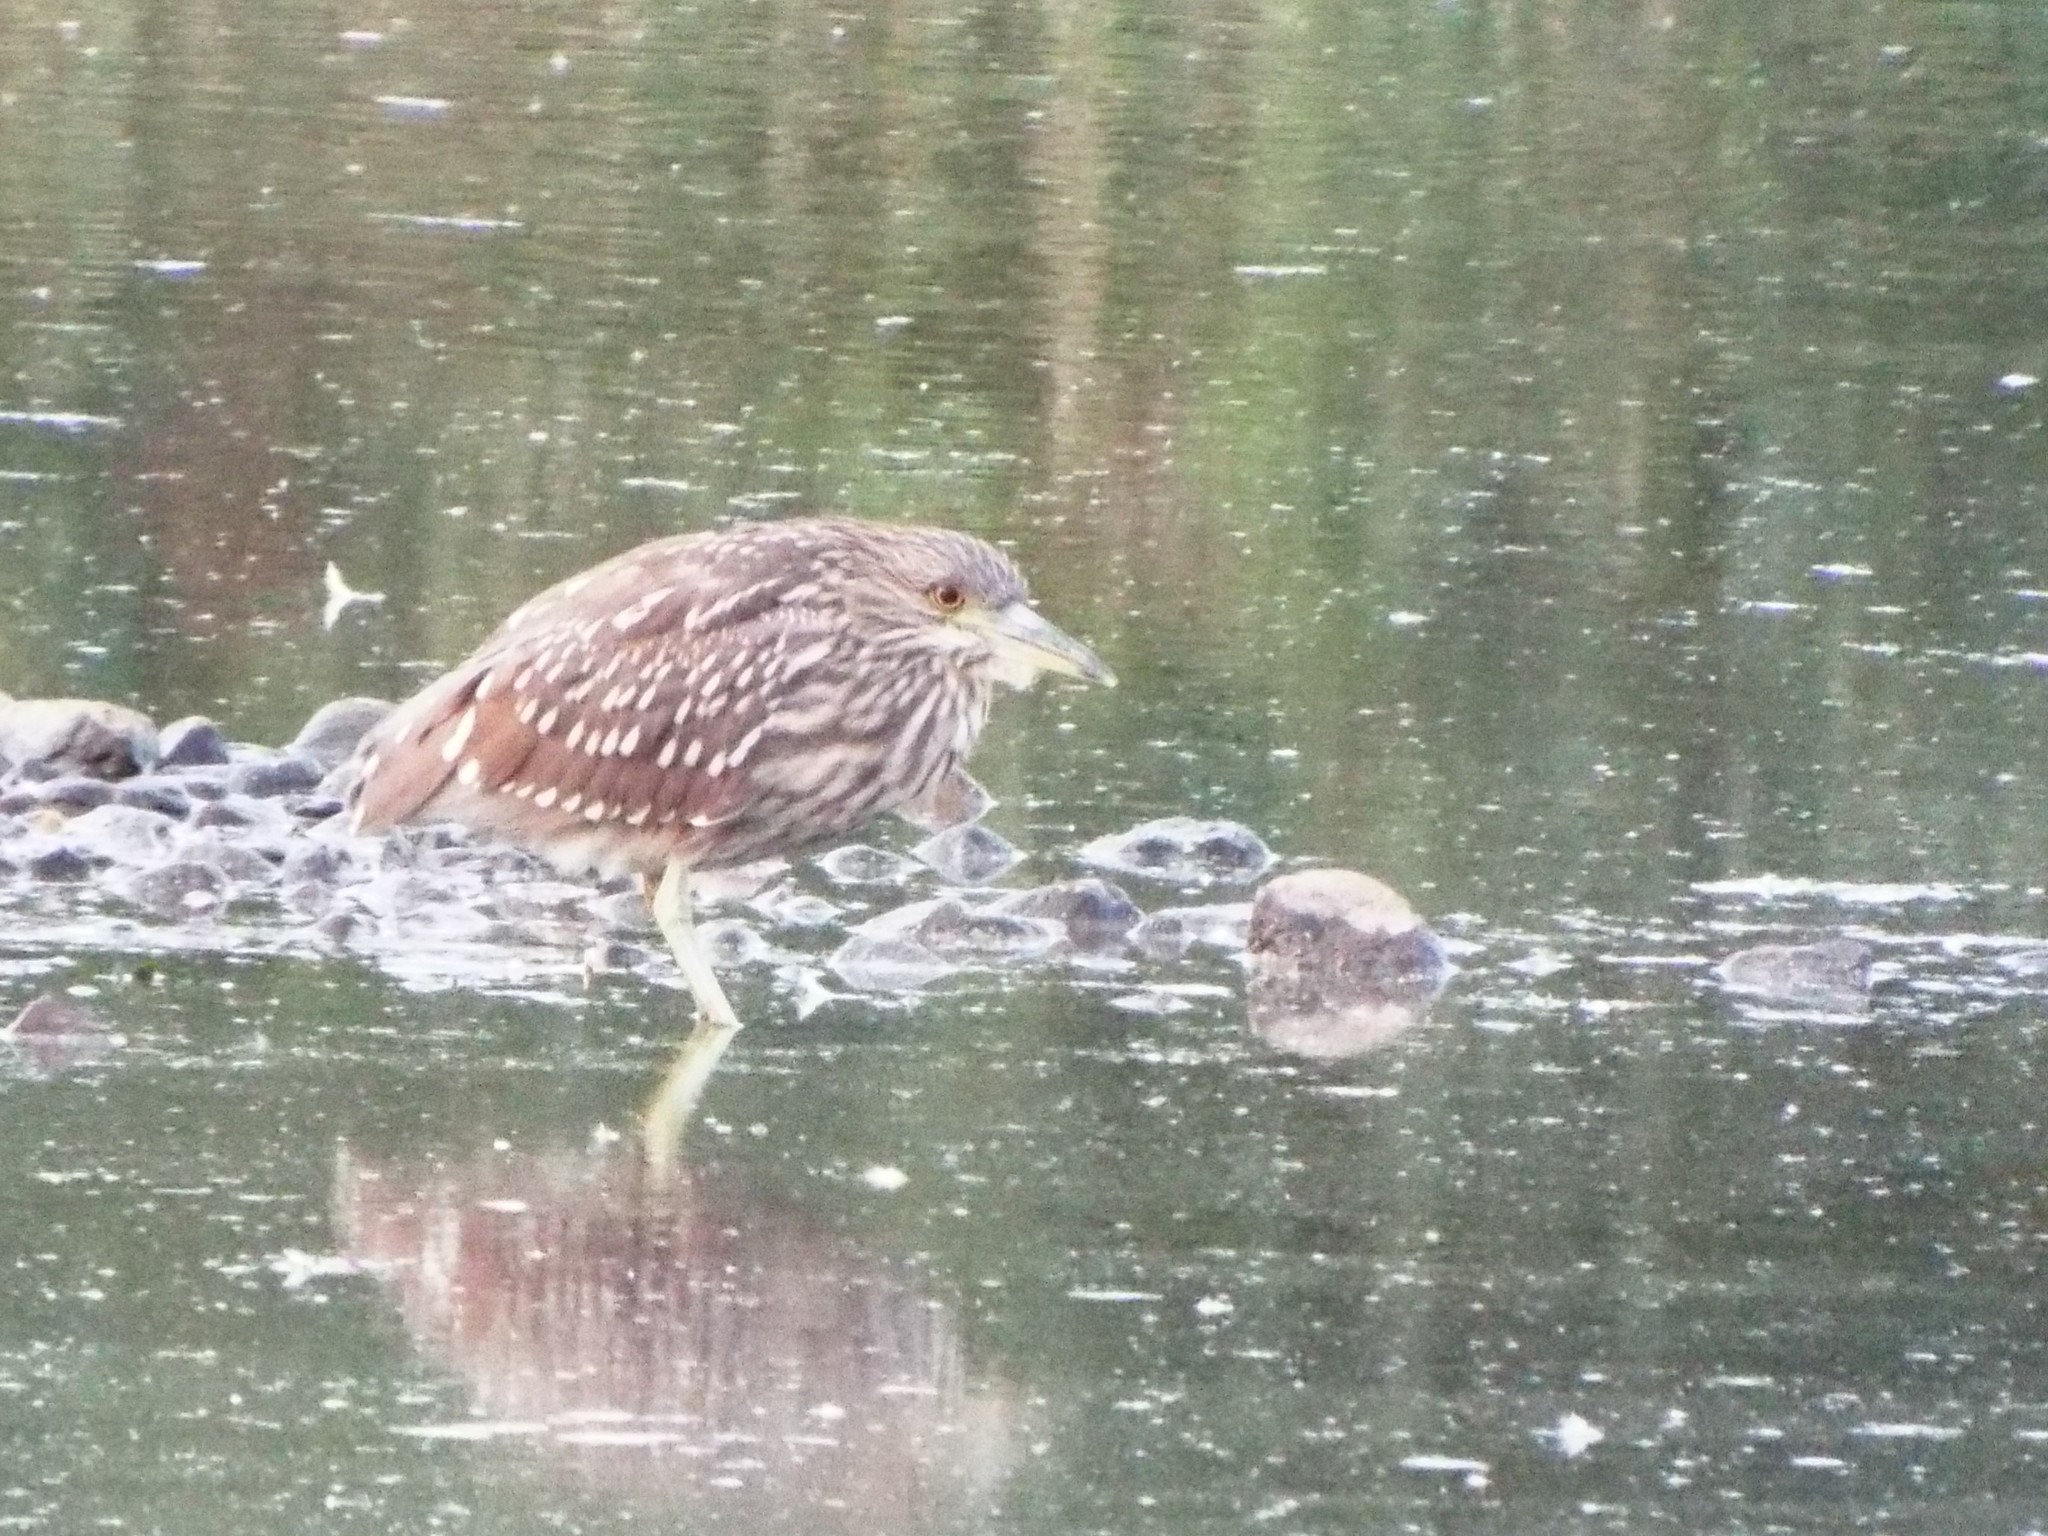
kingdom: Animalia
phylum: Chordata
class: Aves
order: Pelecaniformes
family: Ardeidae
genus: Nycticorax
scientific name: Nycticorax nycticorax
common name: Black-crowned night heron
